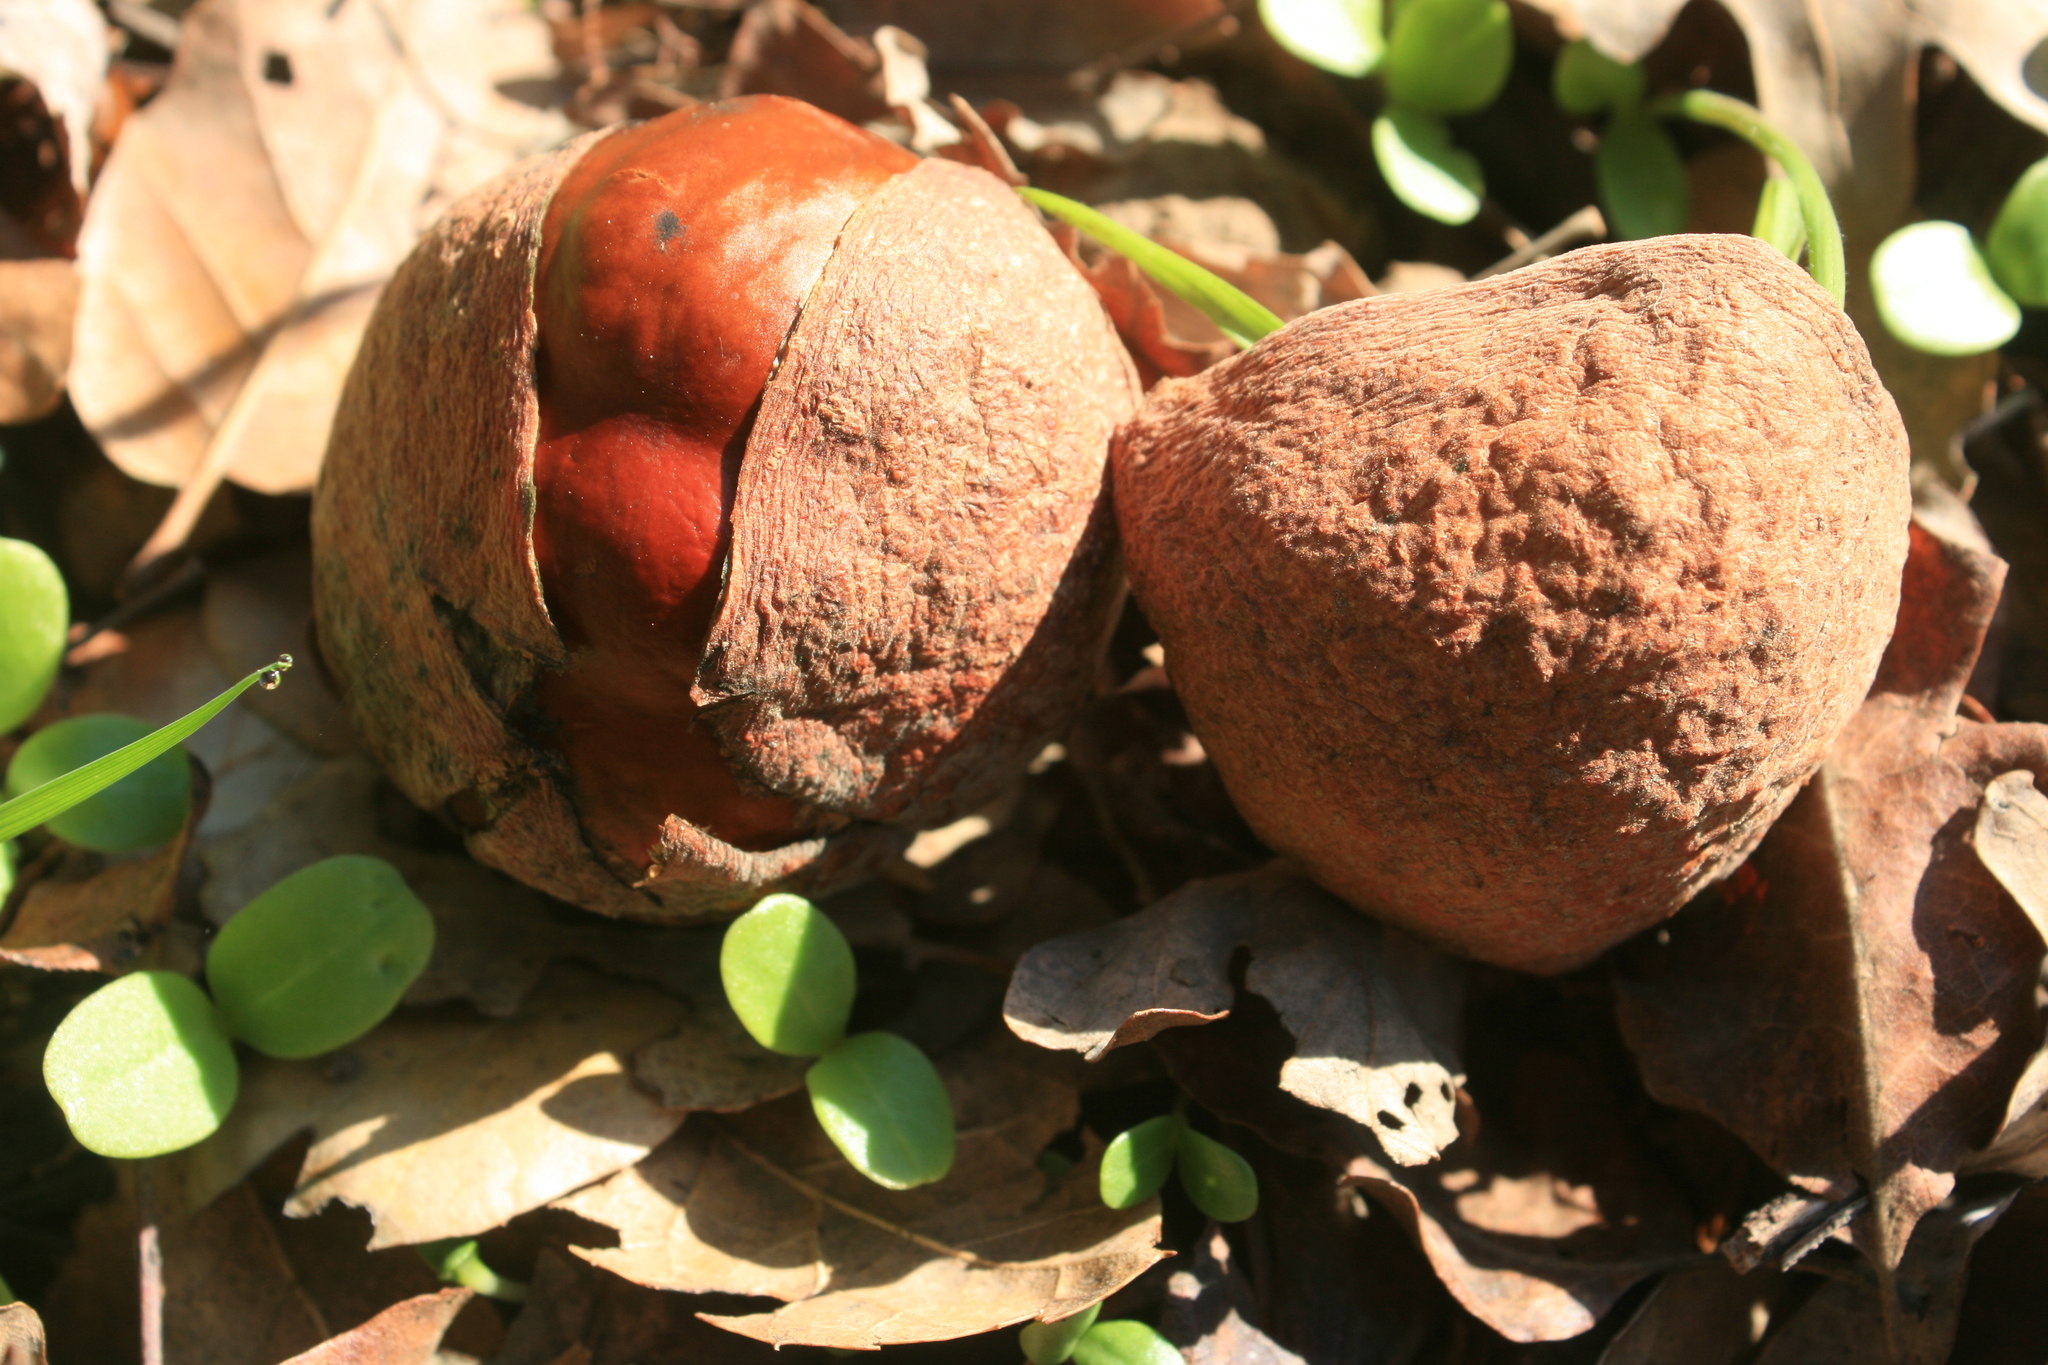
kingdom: Plantae
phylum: Tracheophyta
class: Magnoliopsida
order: Sapindales
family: Sapindaceae
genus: Aesculus
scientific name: Aesculus californica
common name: California buckeye
